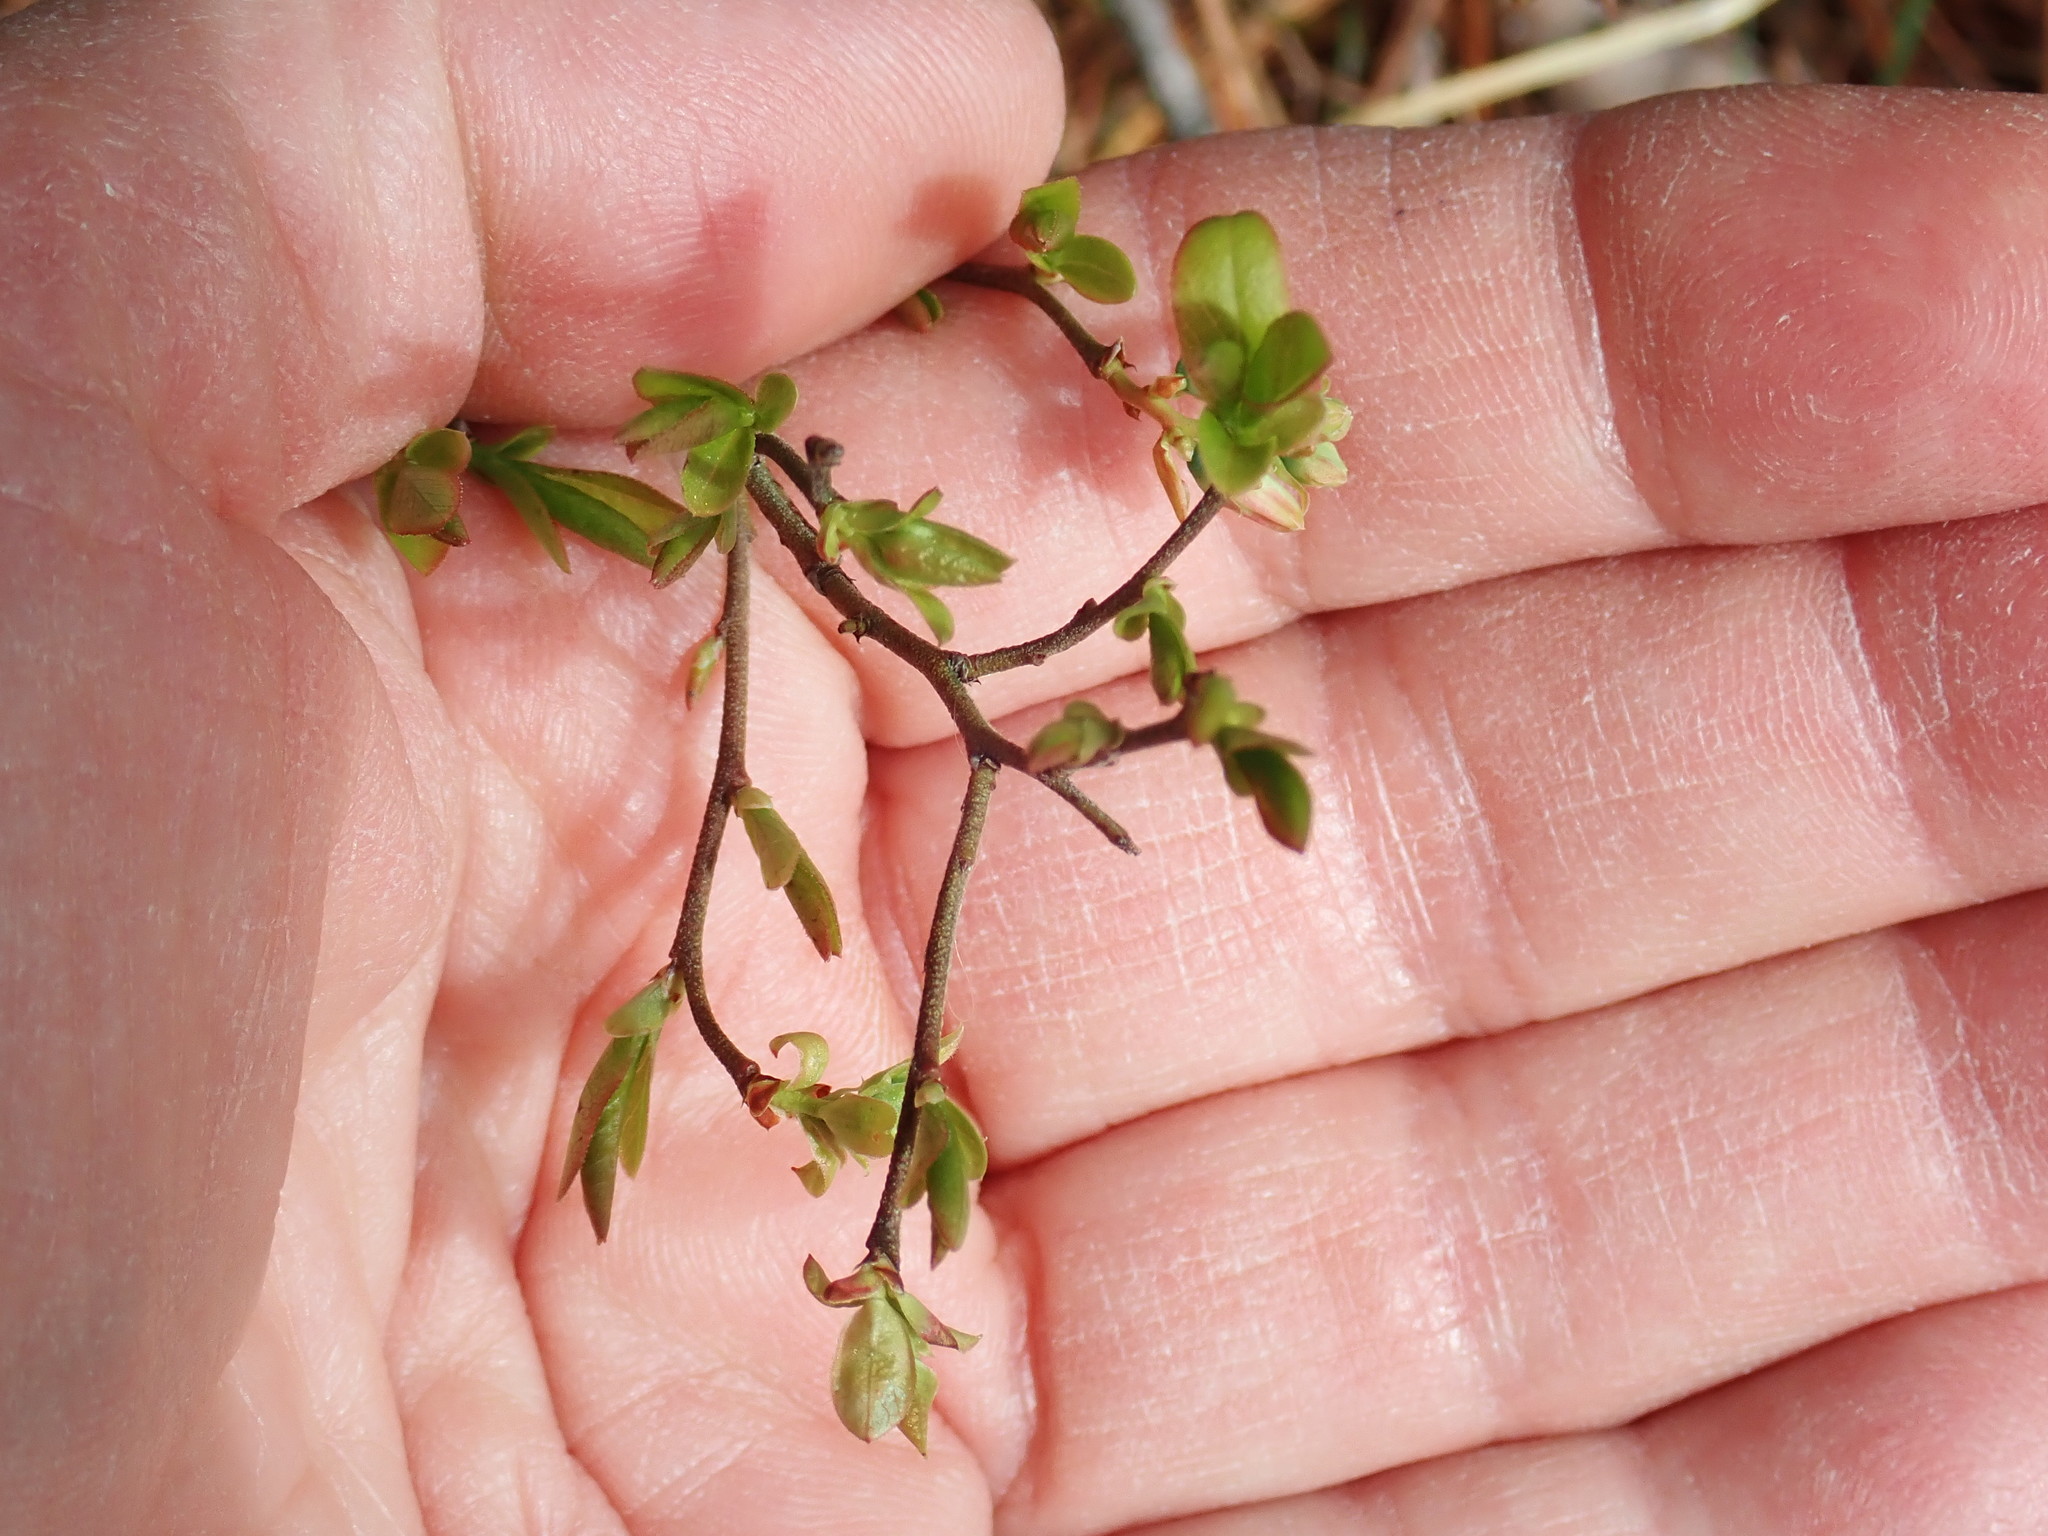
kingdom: Plantae
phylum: Tracheophyta
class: Magnoliopsida
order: Ericales
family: Ericaceae
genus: Vaccinium
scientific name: Vaccinium angustifolium
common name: Early lowbush blueberry
